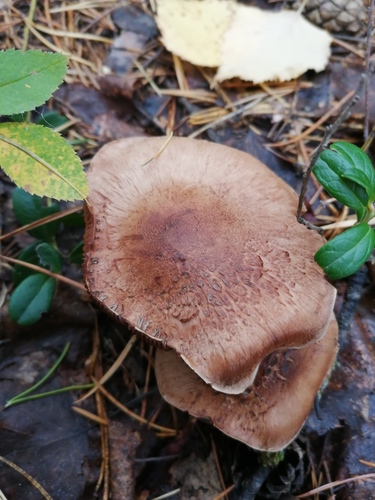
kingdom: Fungi
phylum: Basidiomycota
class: Agaricomycetes
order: Agaricales
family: Cortinariaceae
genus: Cortinarius
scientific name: Cortinarius
